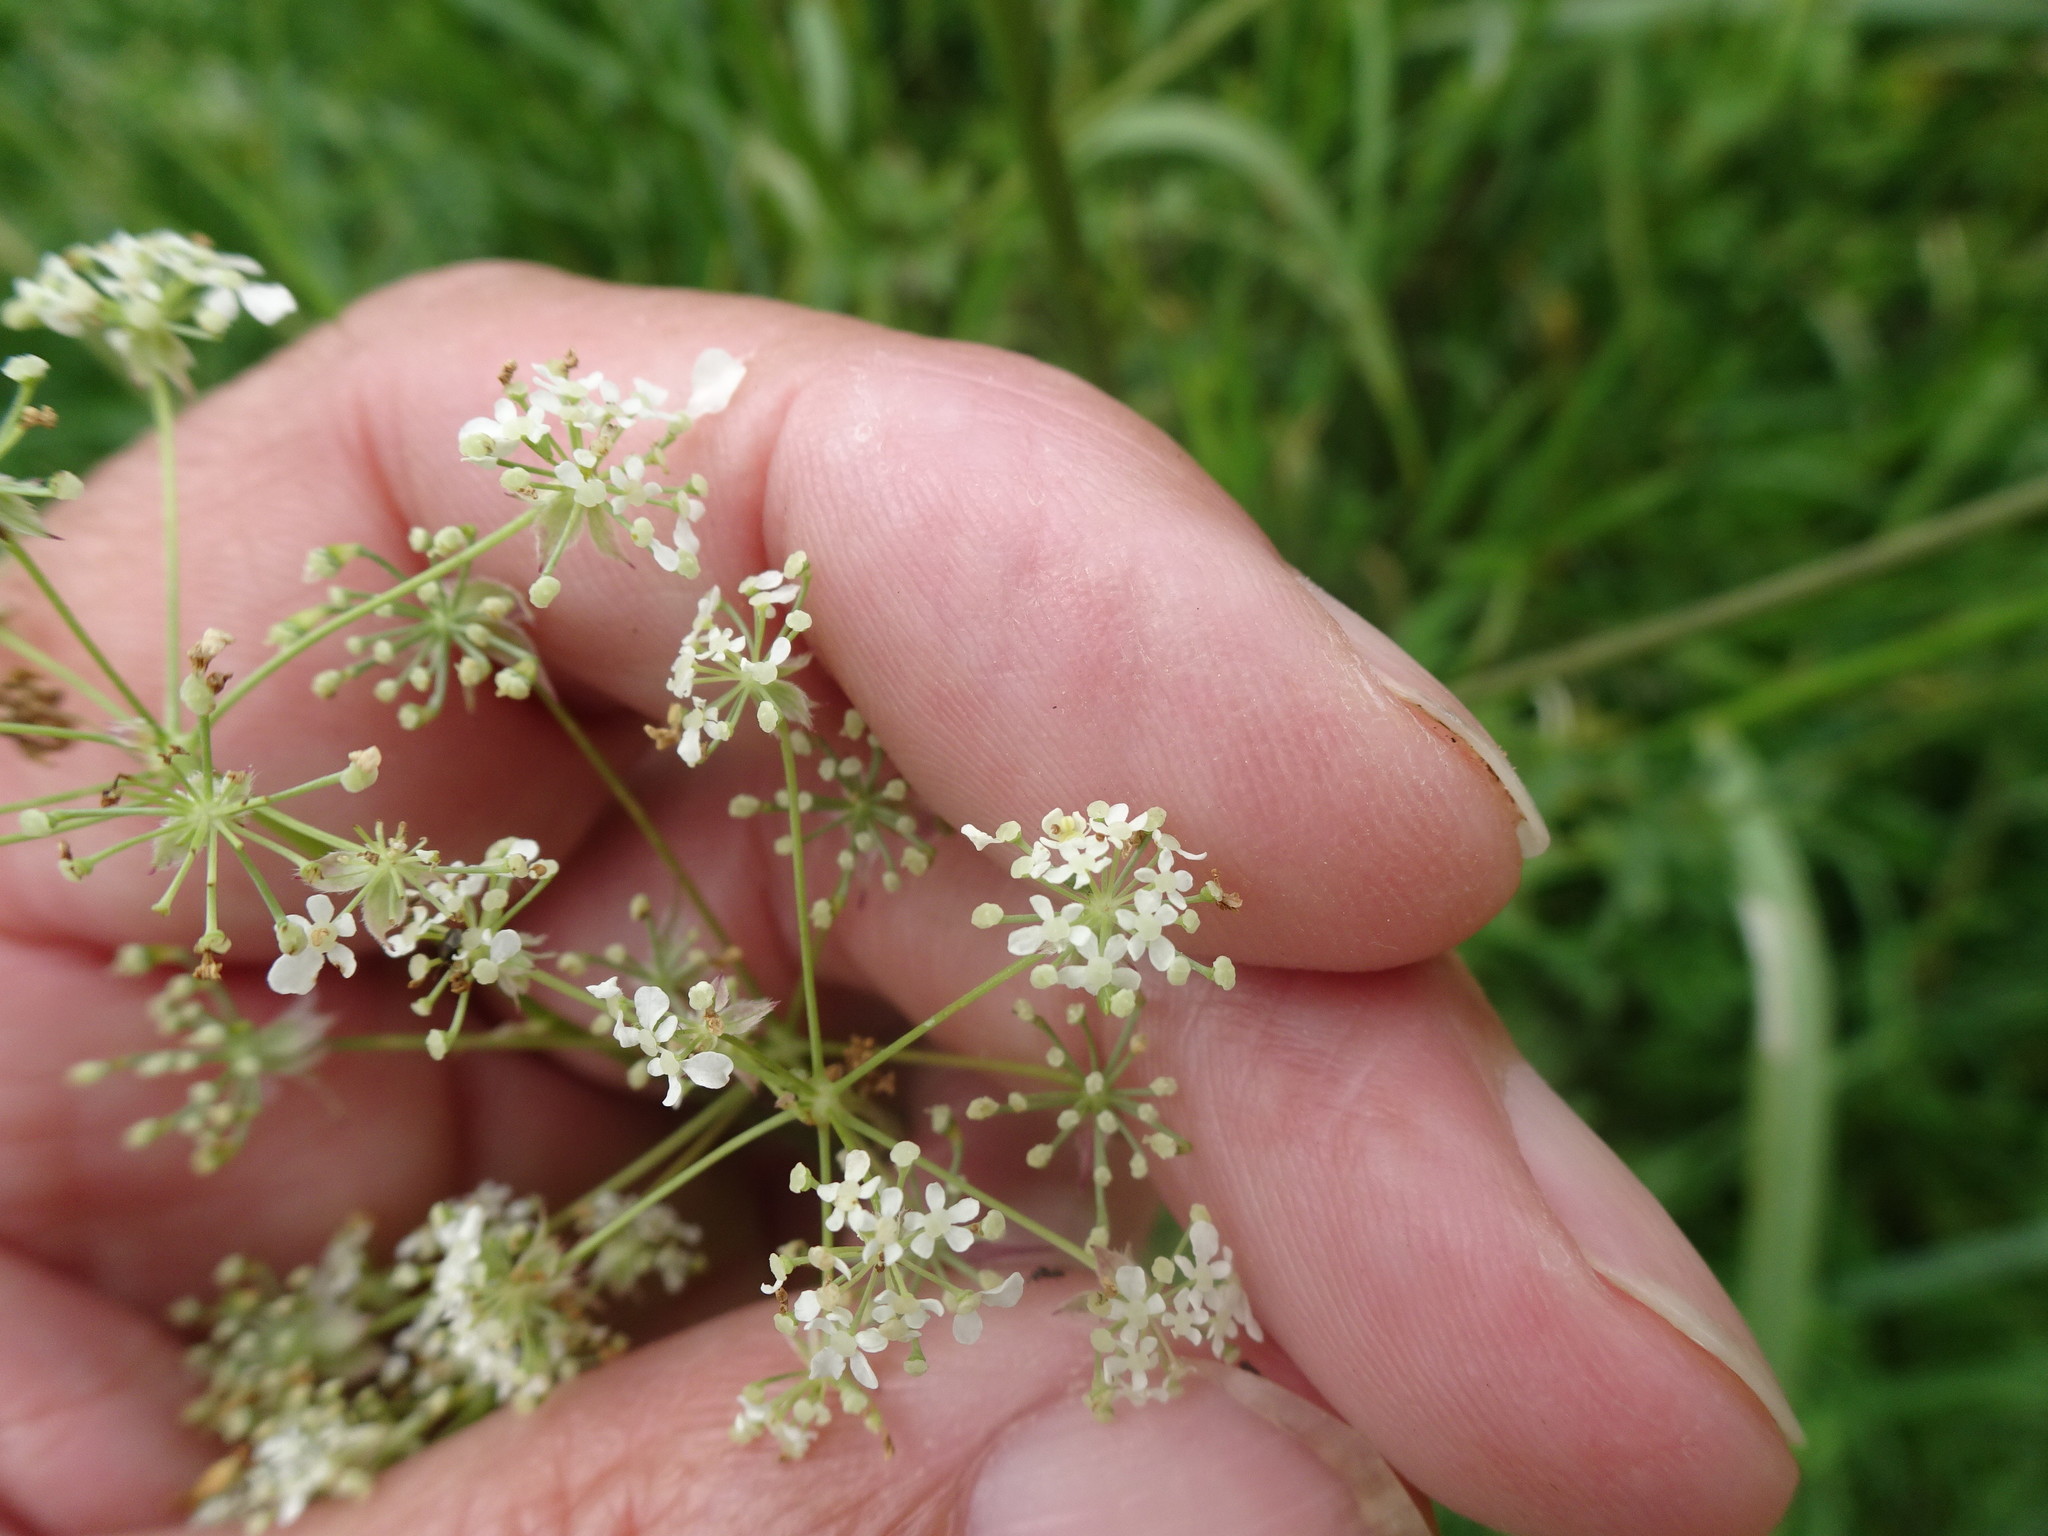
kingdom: Plantae
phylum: Tracheophyta
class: Magnoliopsida
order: Apiales
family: Apiaceae
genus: Anthriscus
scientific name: Anthriscus sylvestris
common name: Cow parsley
